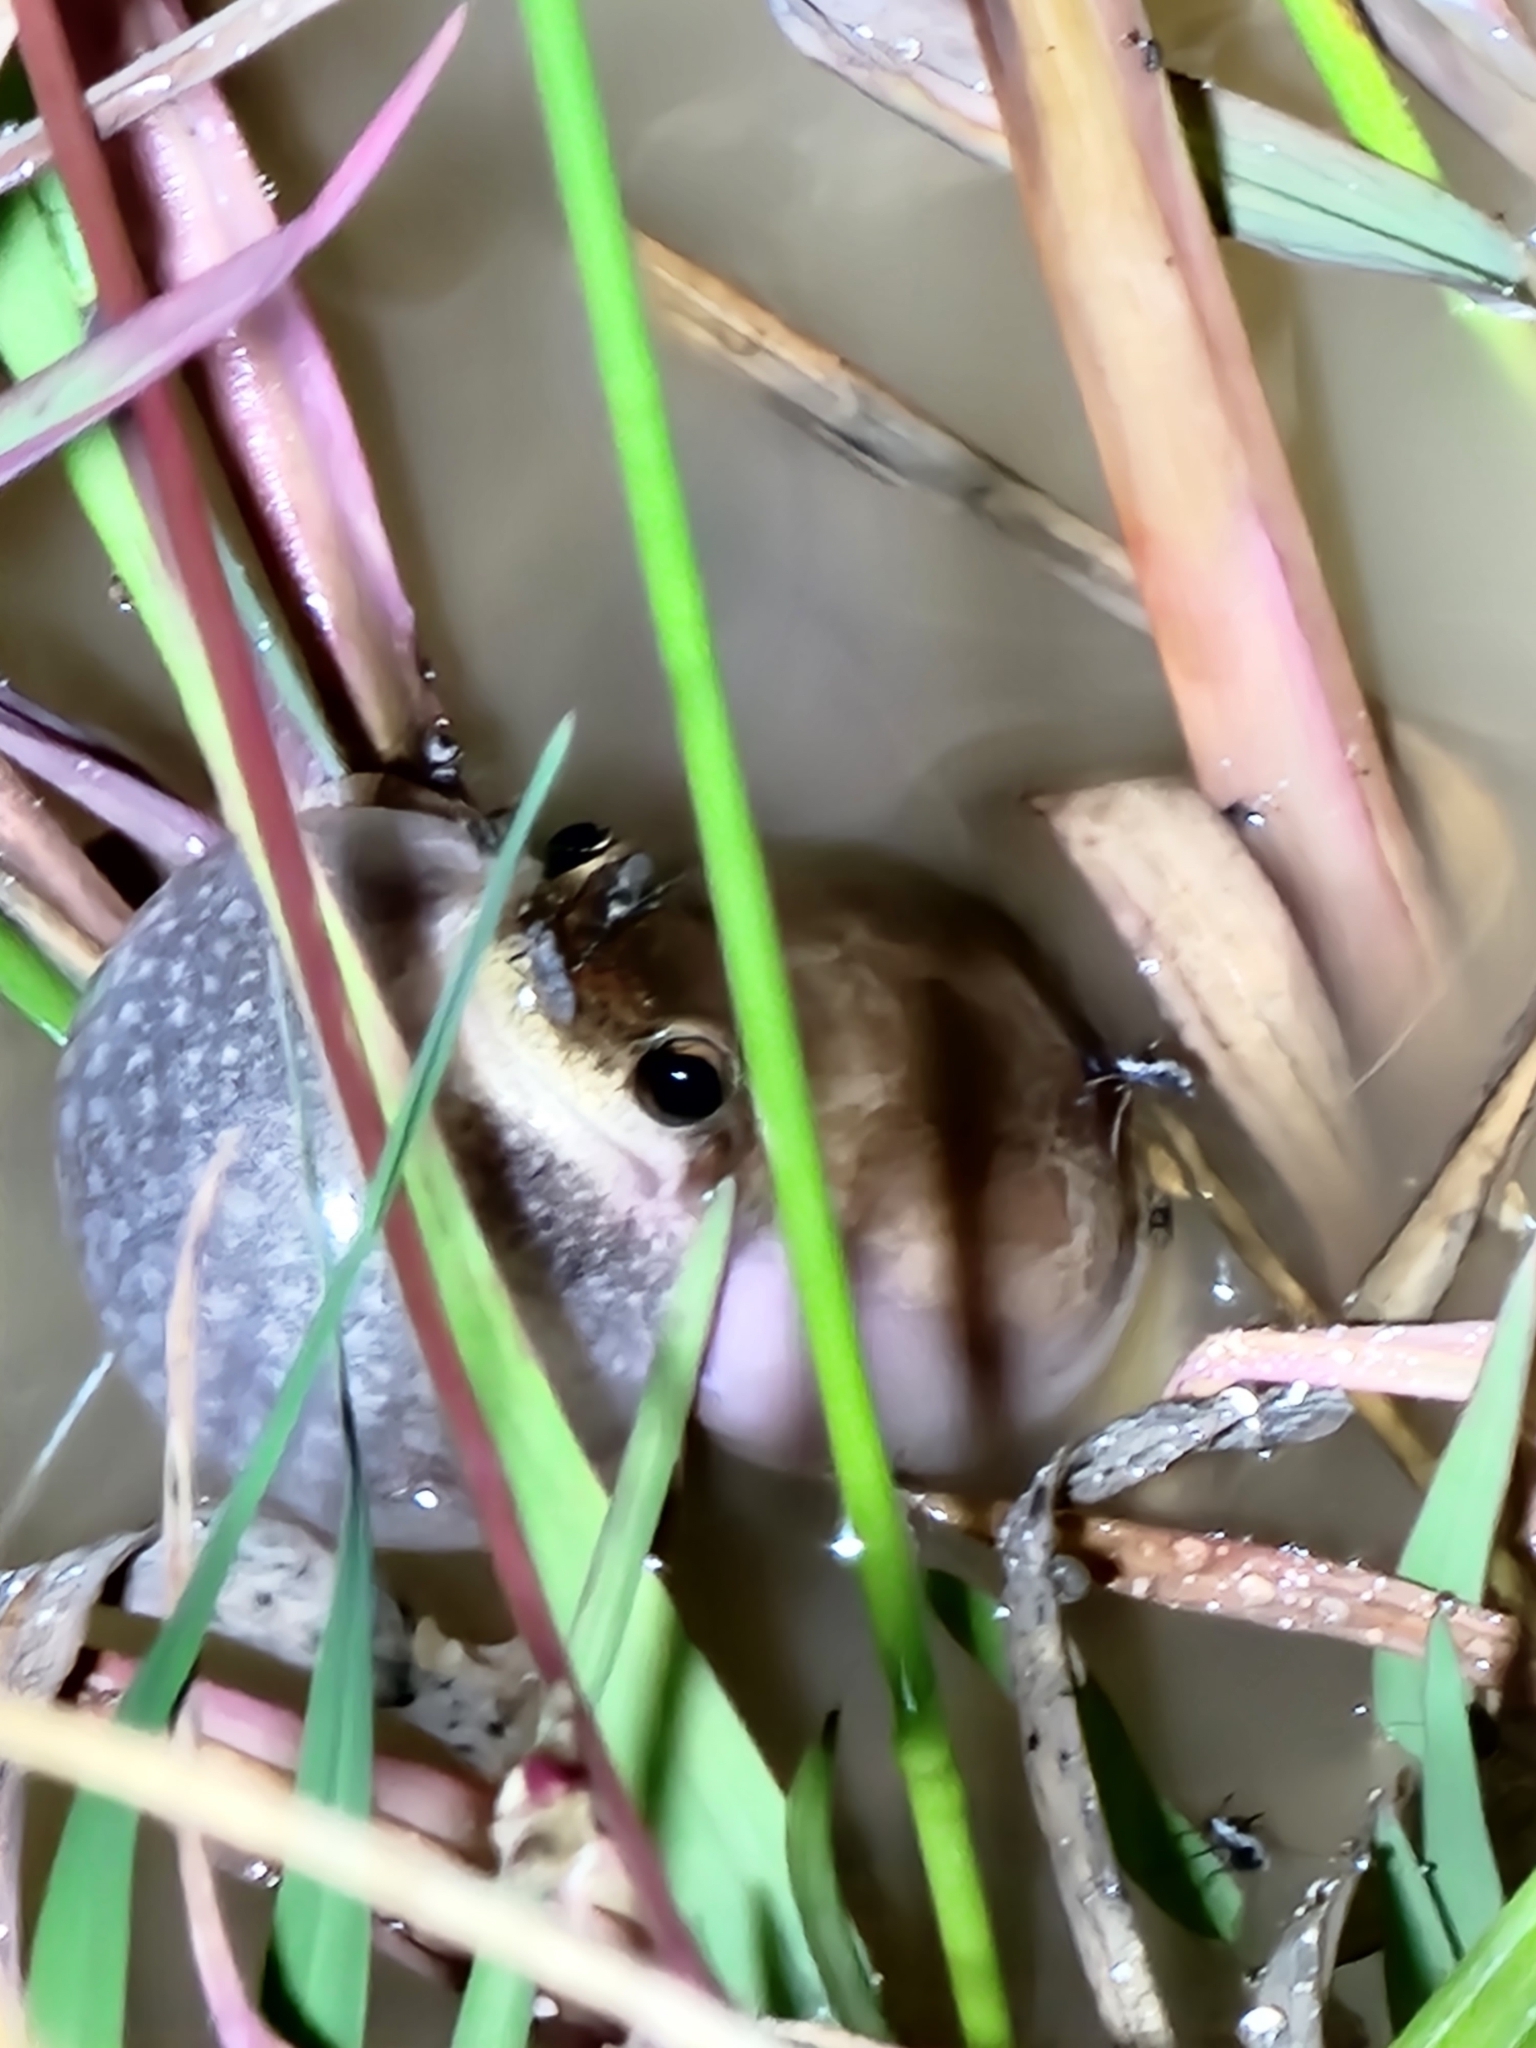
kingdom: Animalia
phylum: Chordata
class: Amphibia
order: Anura
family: Pelodryadidae
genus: Litoria
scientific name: Litoria rubella
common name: Desert tree frog
